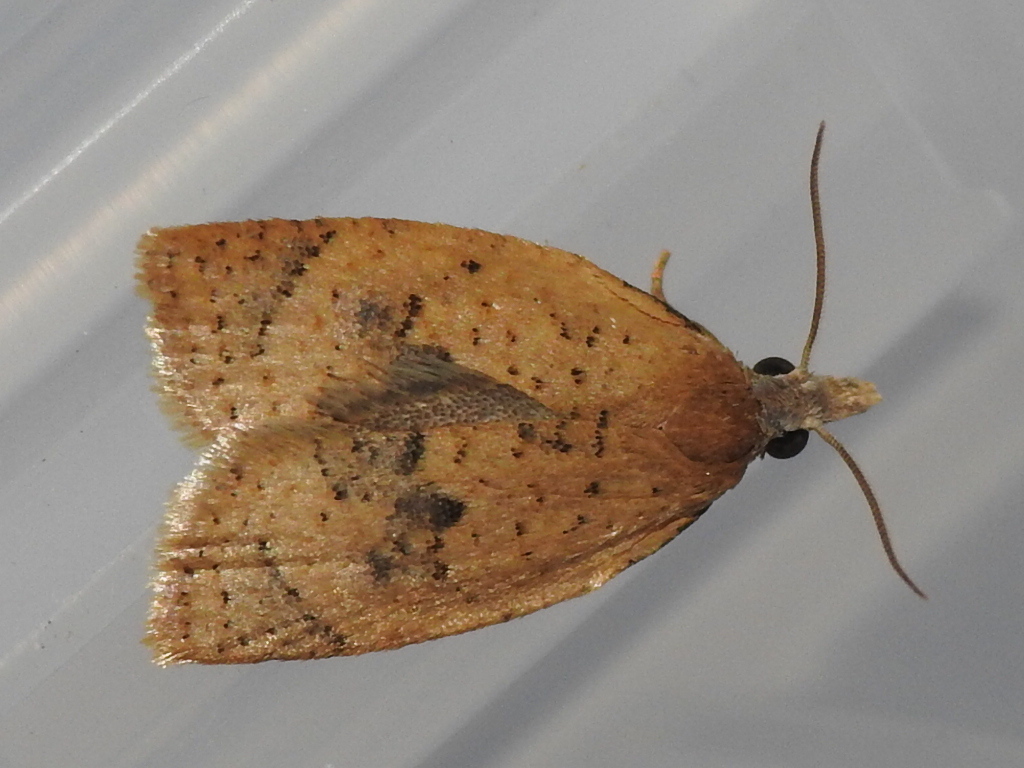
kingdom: Animalia
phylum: Arthropoda
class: Insecta
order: Lepidoptera
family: Tortricidae
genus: Sparganothoides
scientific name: Sparganothoides lentiginosana
